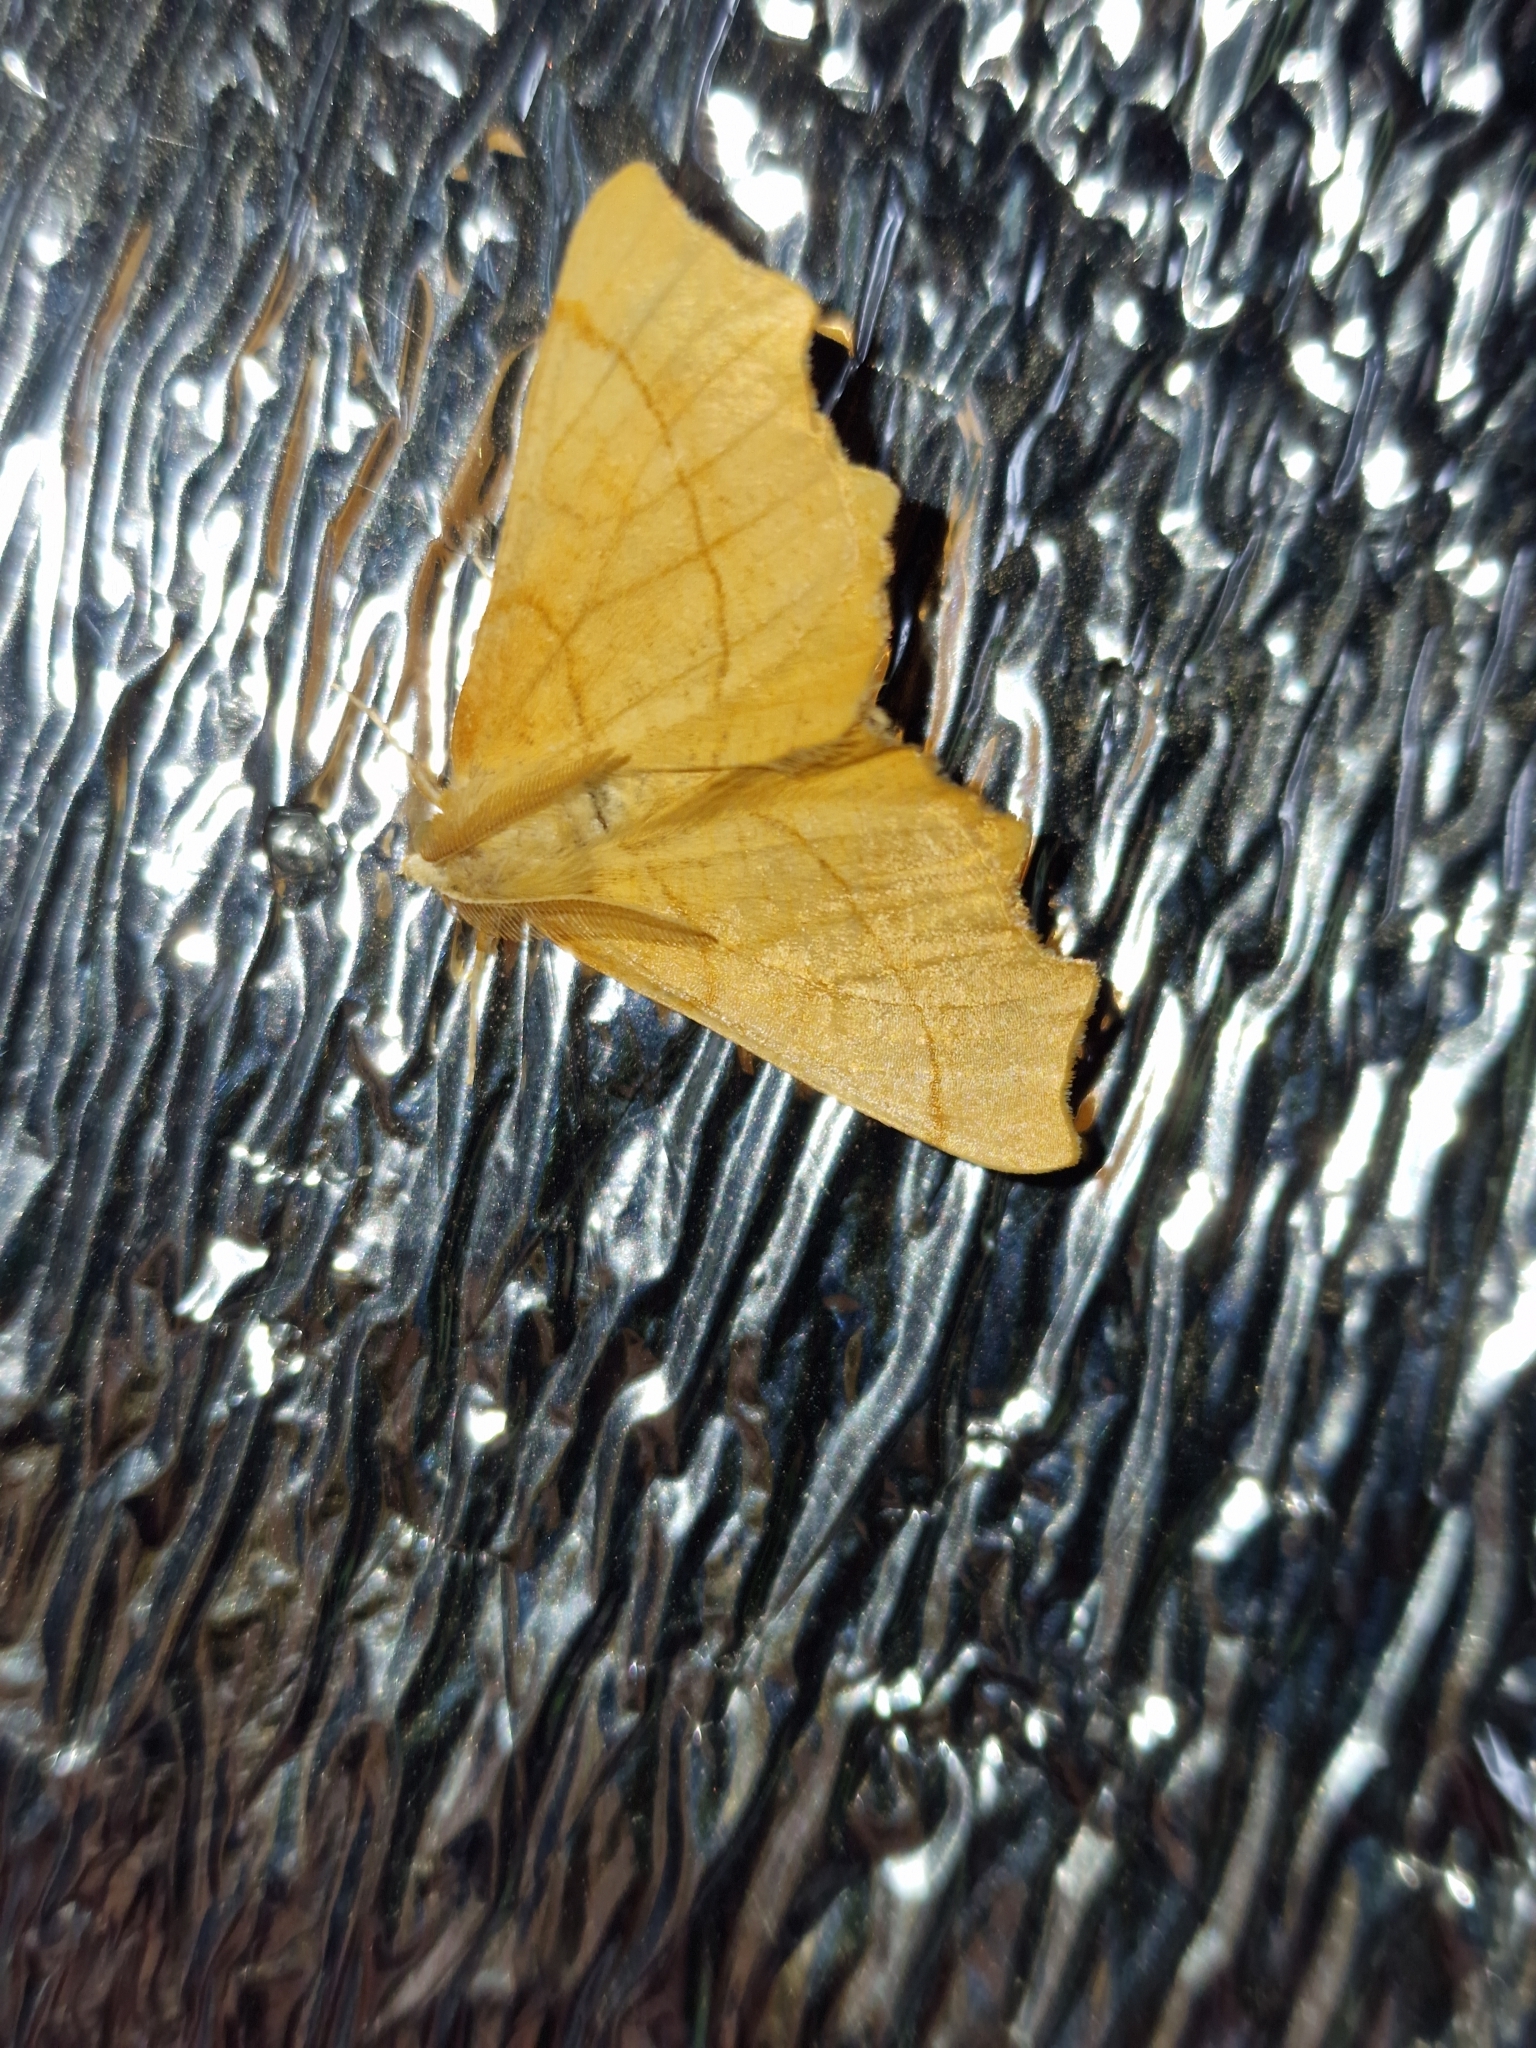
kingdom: Animalia
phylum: Arthropoda
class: Insecta
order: Lepidoptera
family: Geometridae
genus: Ennomos
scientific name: Ennomos quercinaria
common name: August thorn
